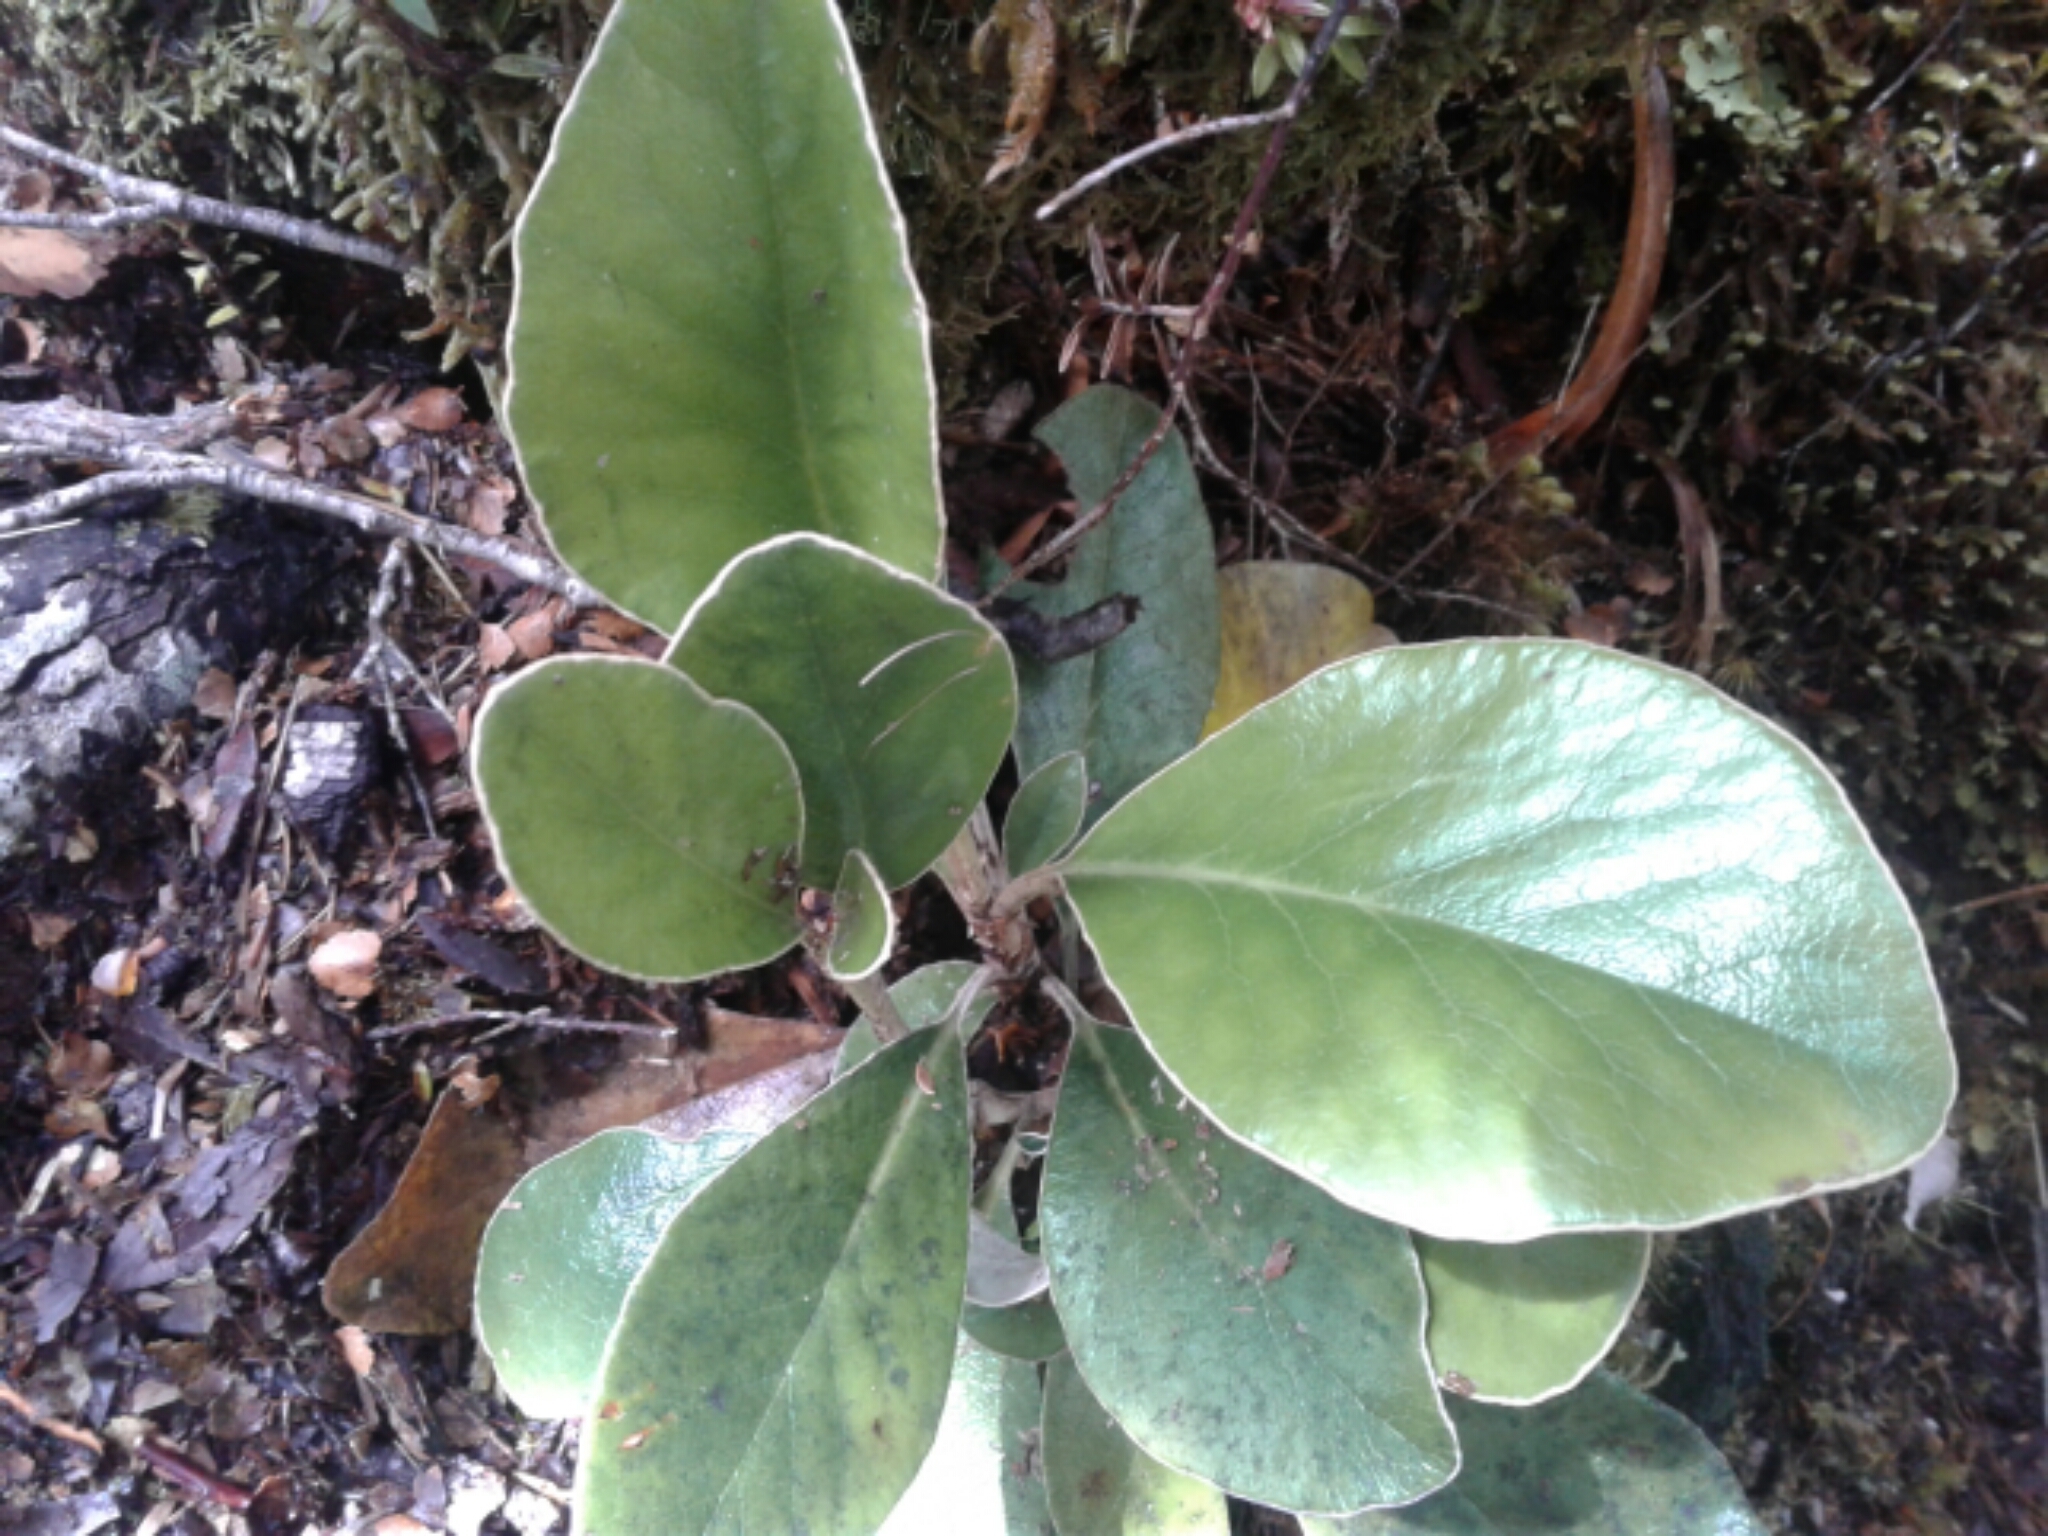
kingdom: Plantae
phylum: Tracheophyta
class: Magnoliopsida
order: Asterales
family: Asteraceae
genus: Brachyglottis
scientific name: Brachyglottis elaeagnifolia
